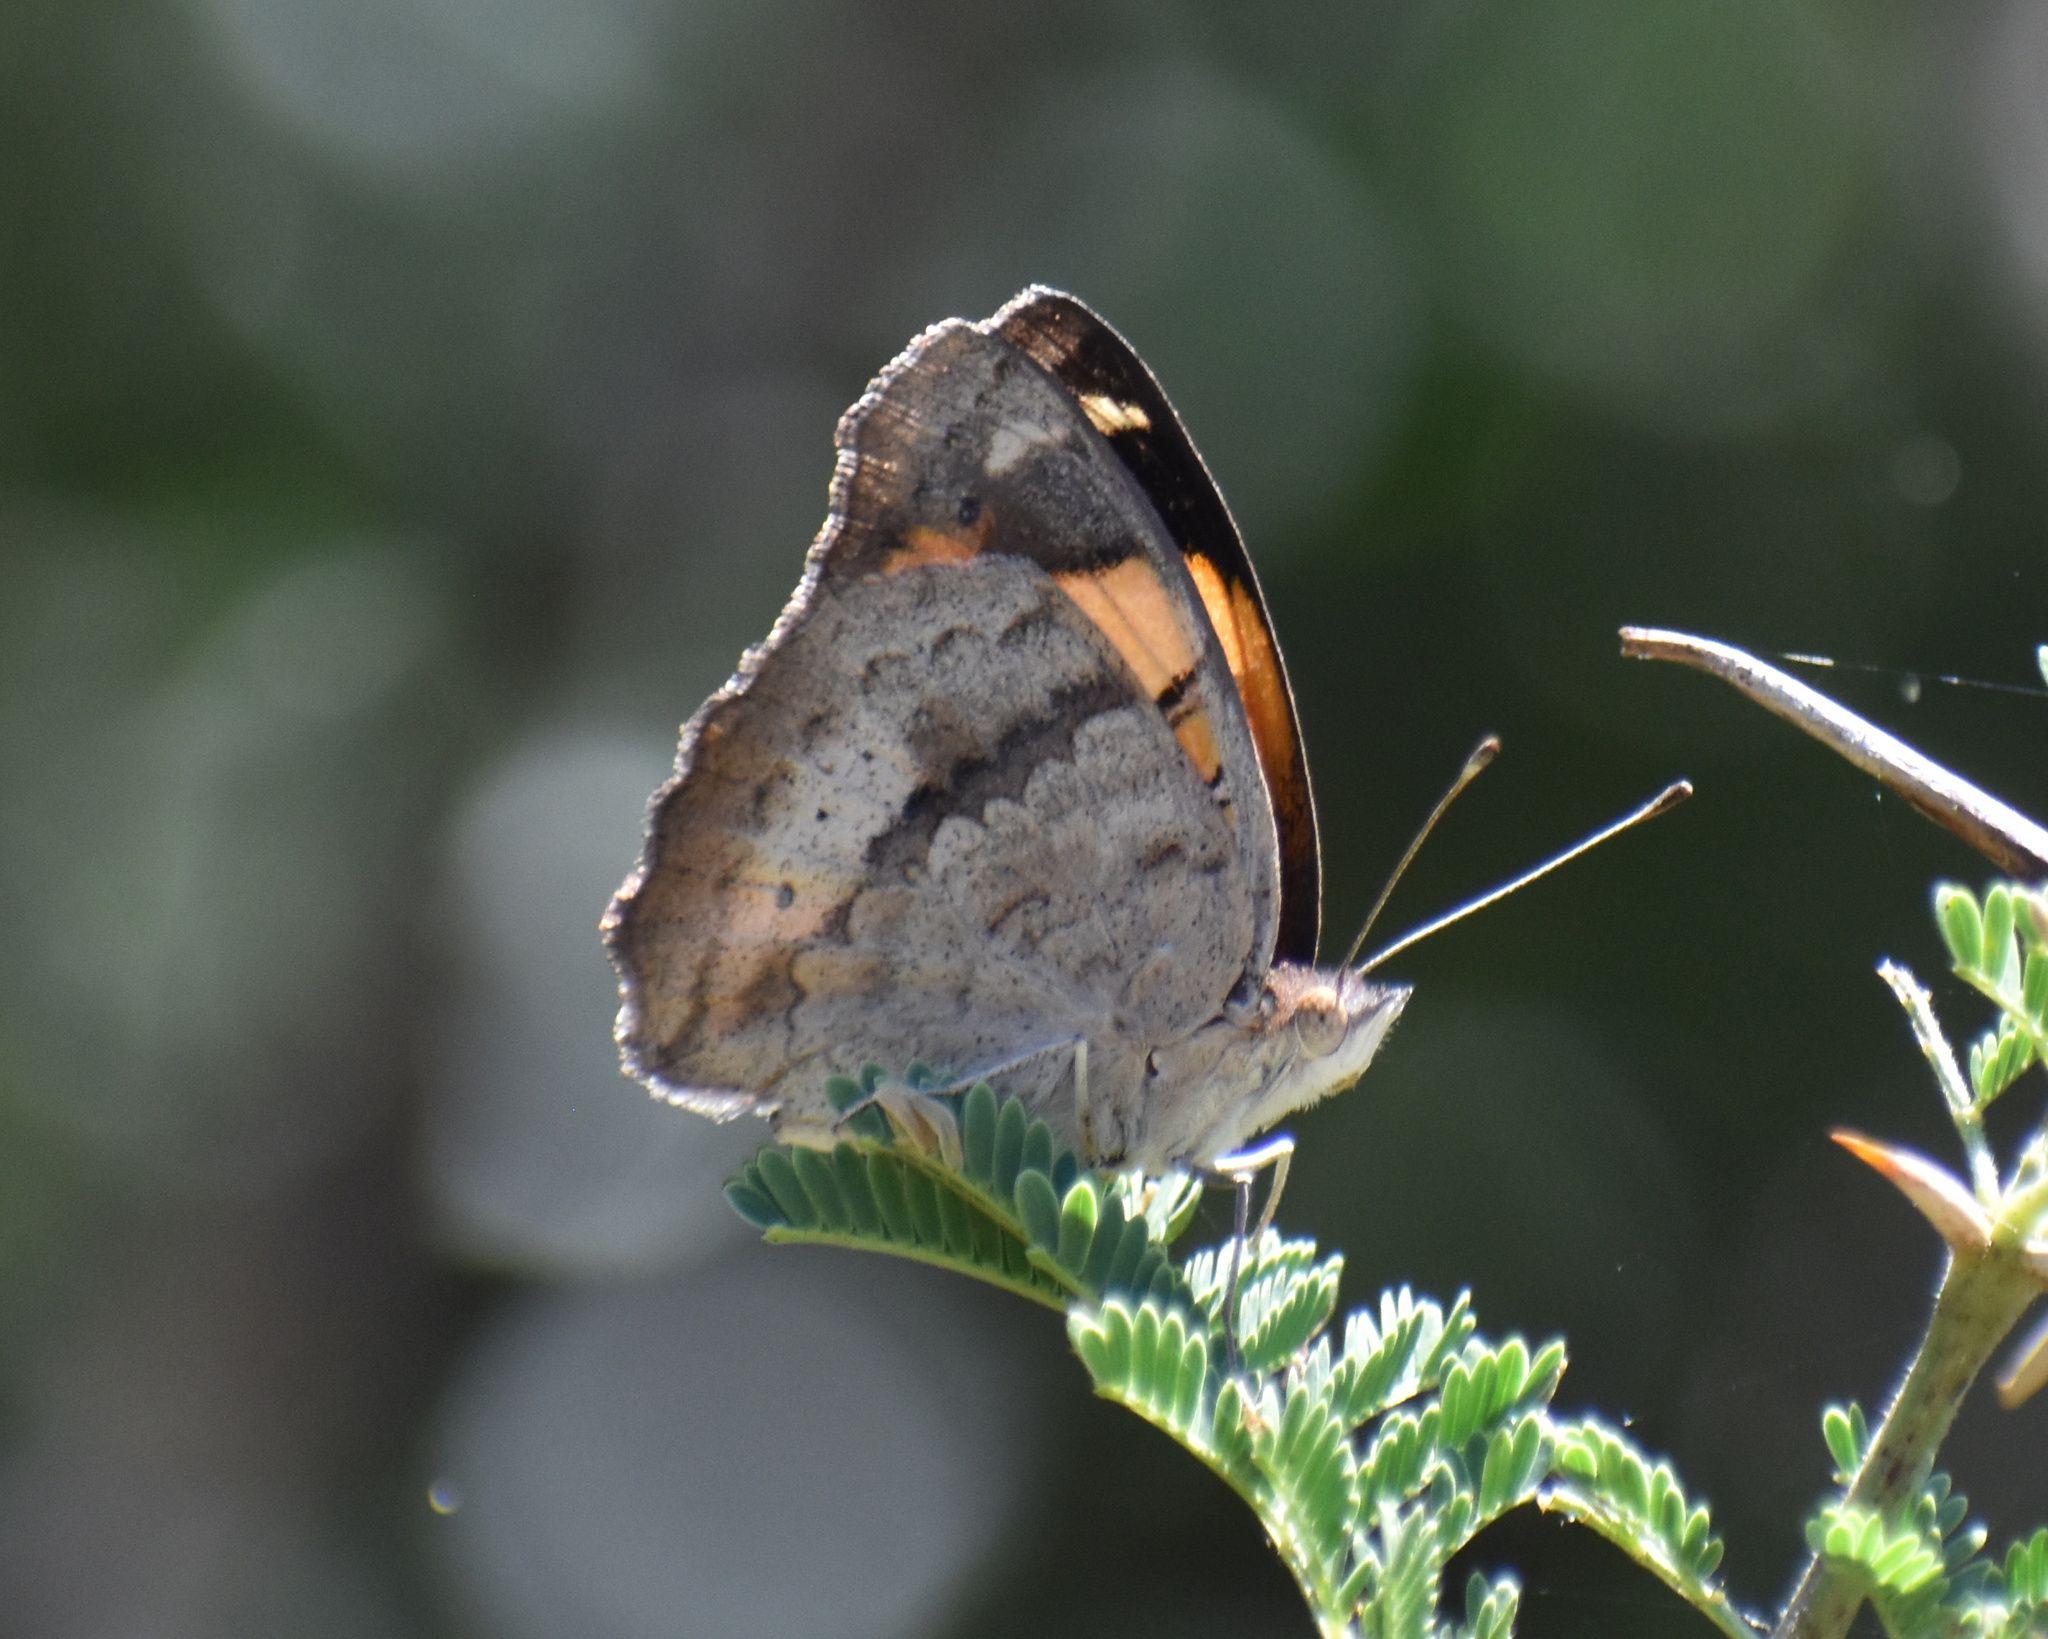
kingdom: Animalia
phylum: Arthropoda
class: Insecta
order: Lepidoptera
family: Nymphalidae
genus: Junonia
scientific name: Junonia hierta
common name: Yellow pansy
